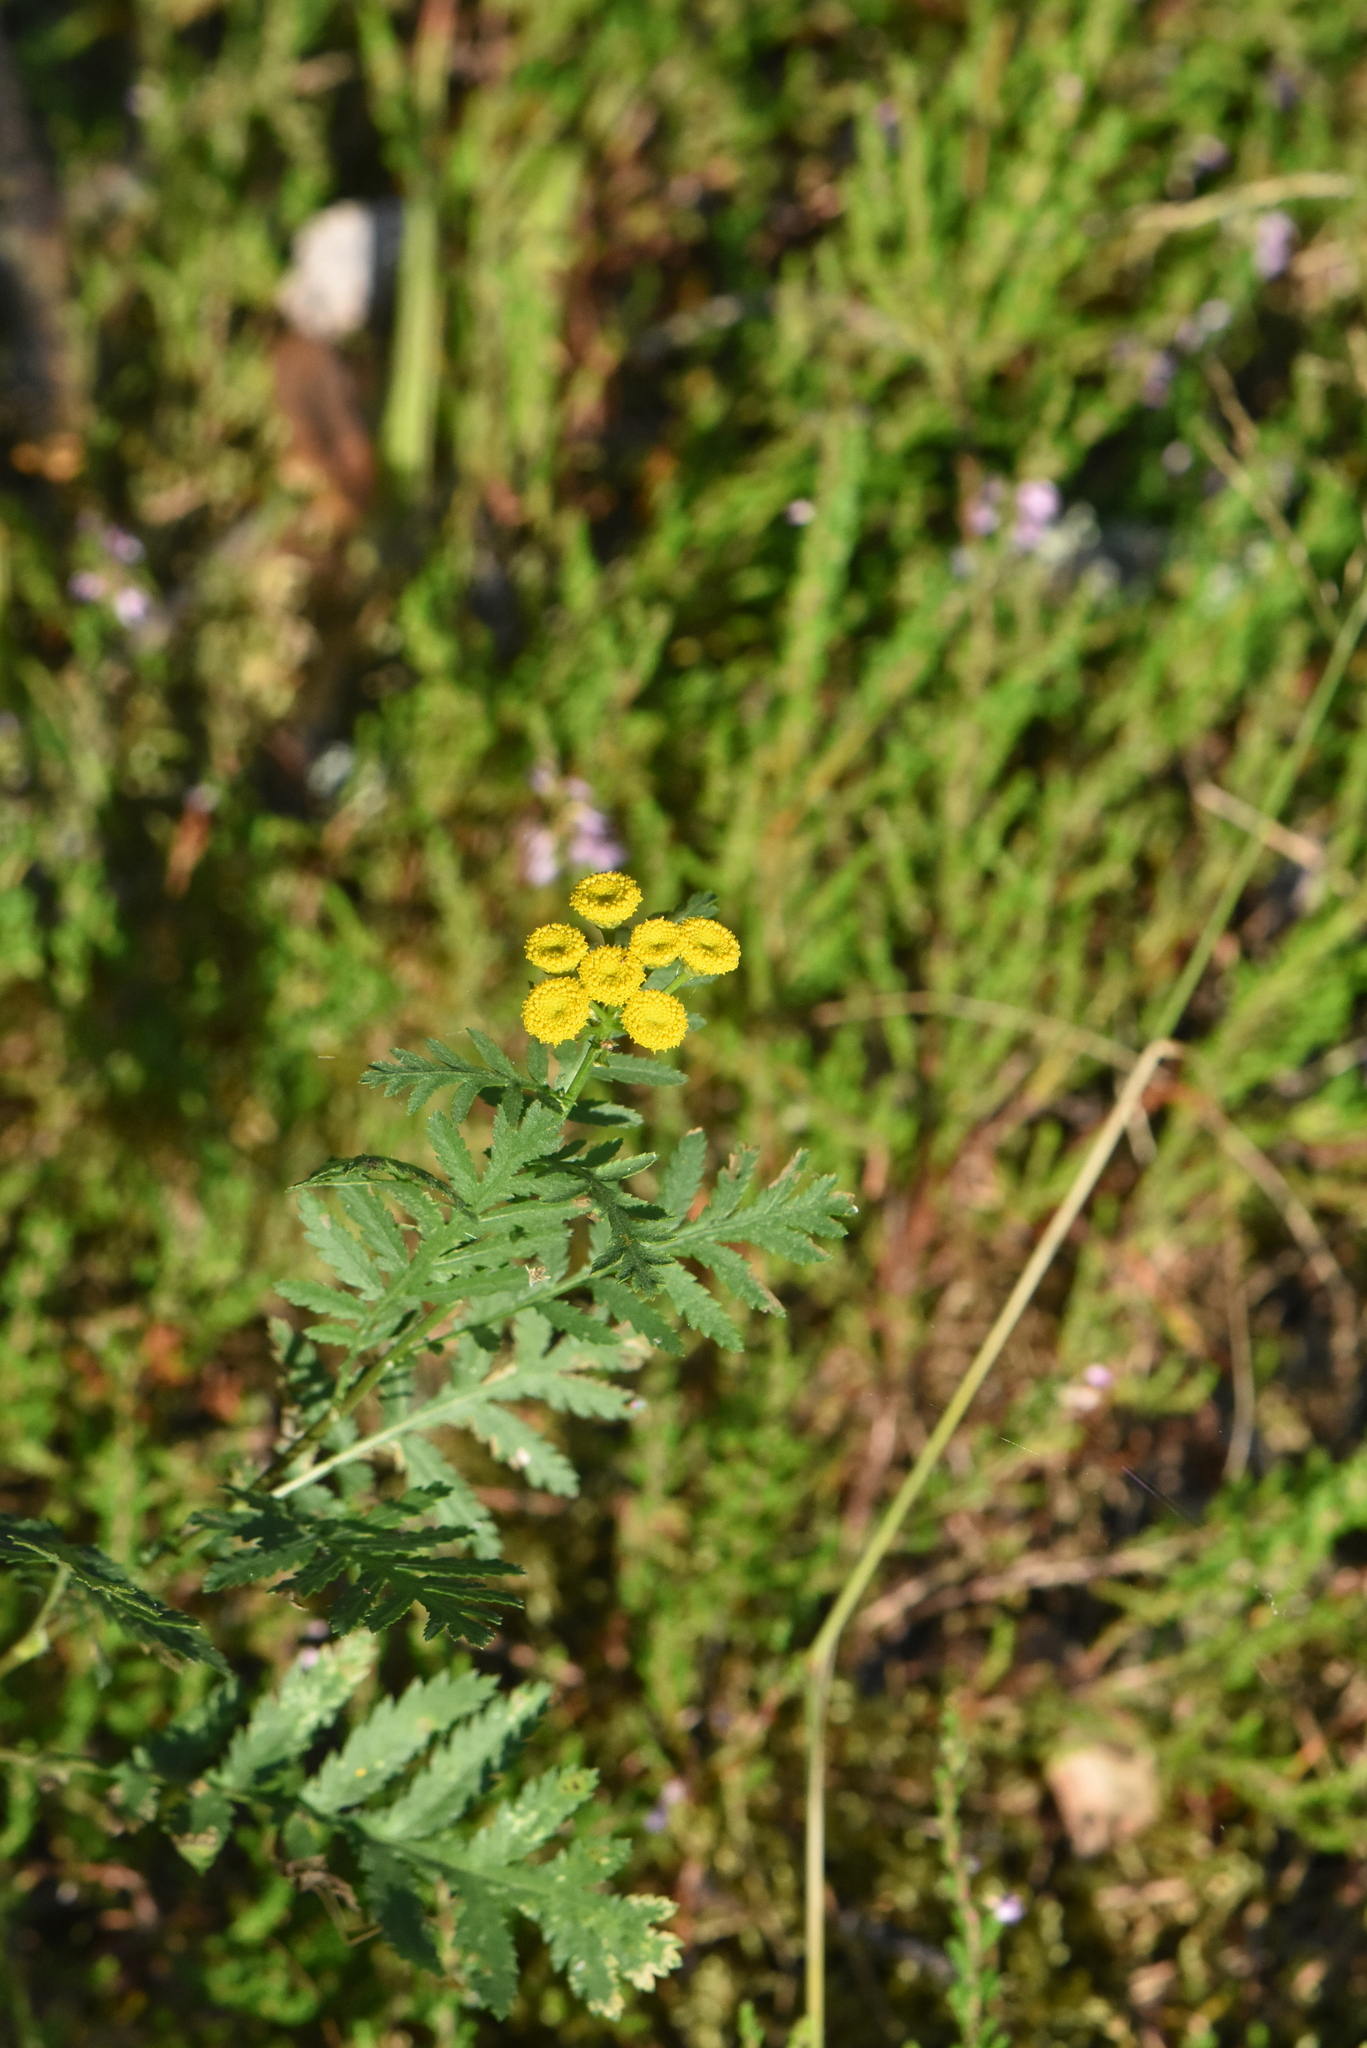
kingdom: Plantae
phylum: Tracheophyta
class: Magnoliopsida
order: Asterales
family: Asteraceae
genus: Tanacetum
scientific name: Tanacetum vulgare
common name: Common tansy
